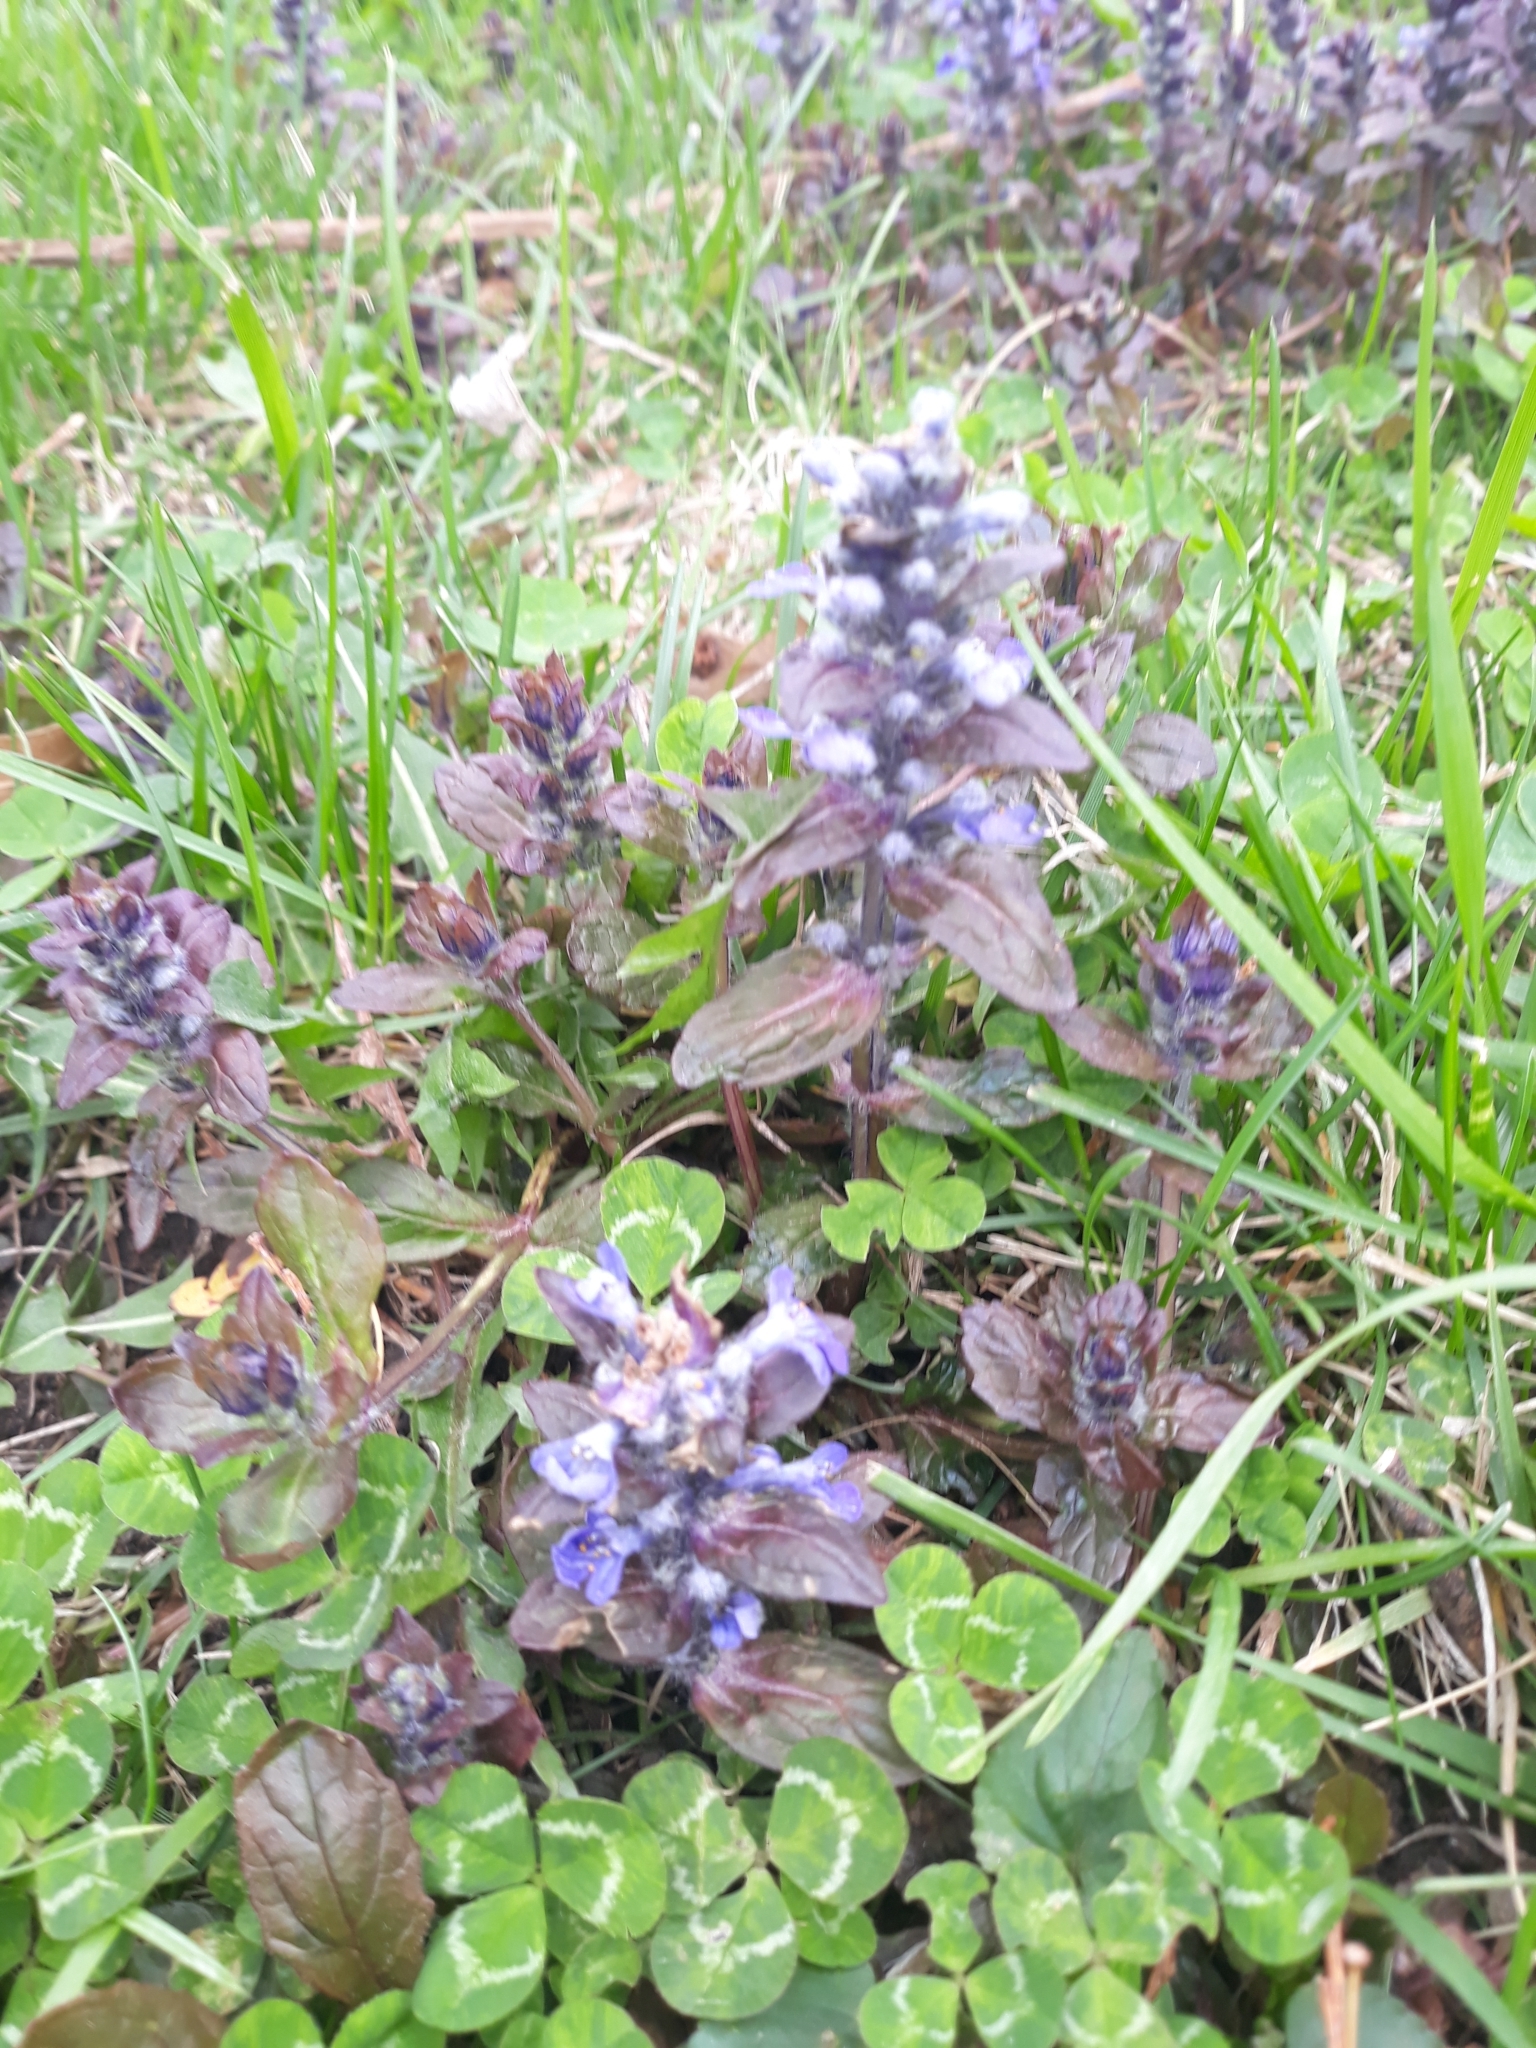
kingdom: Plantae
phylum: Tracheophyta
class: Magnoliopsida
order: Lamiales
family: Lamiaceae
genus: Ajuga
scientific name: Ajuga reptans
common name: Bugle
